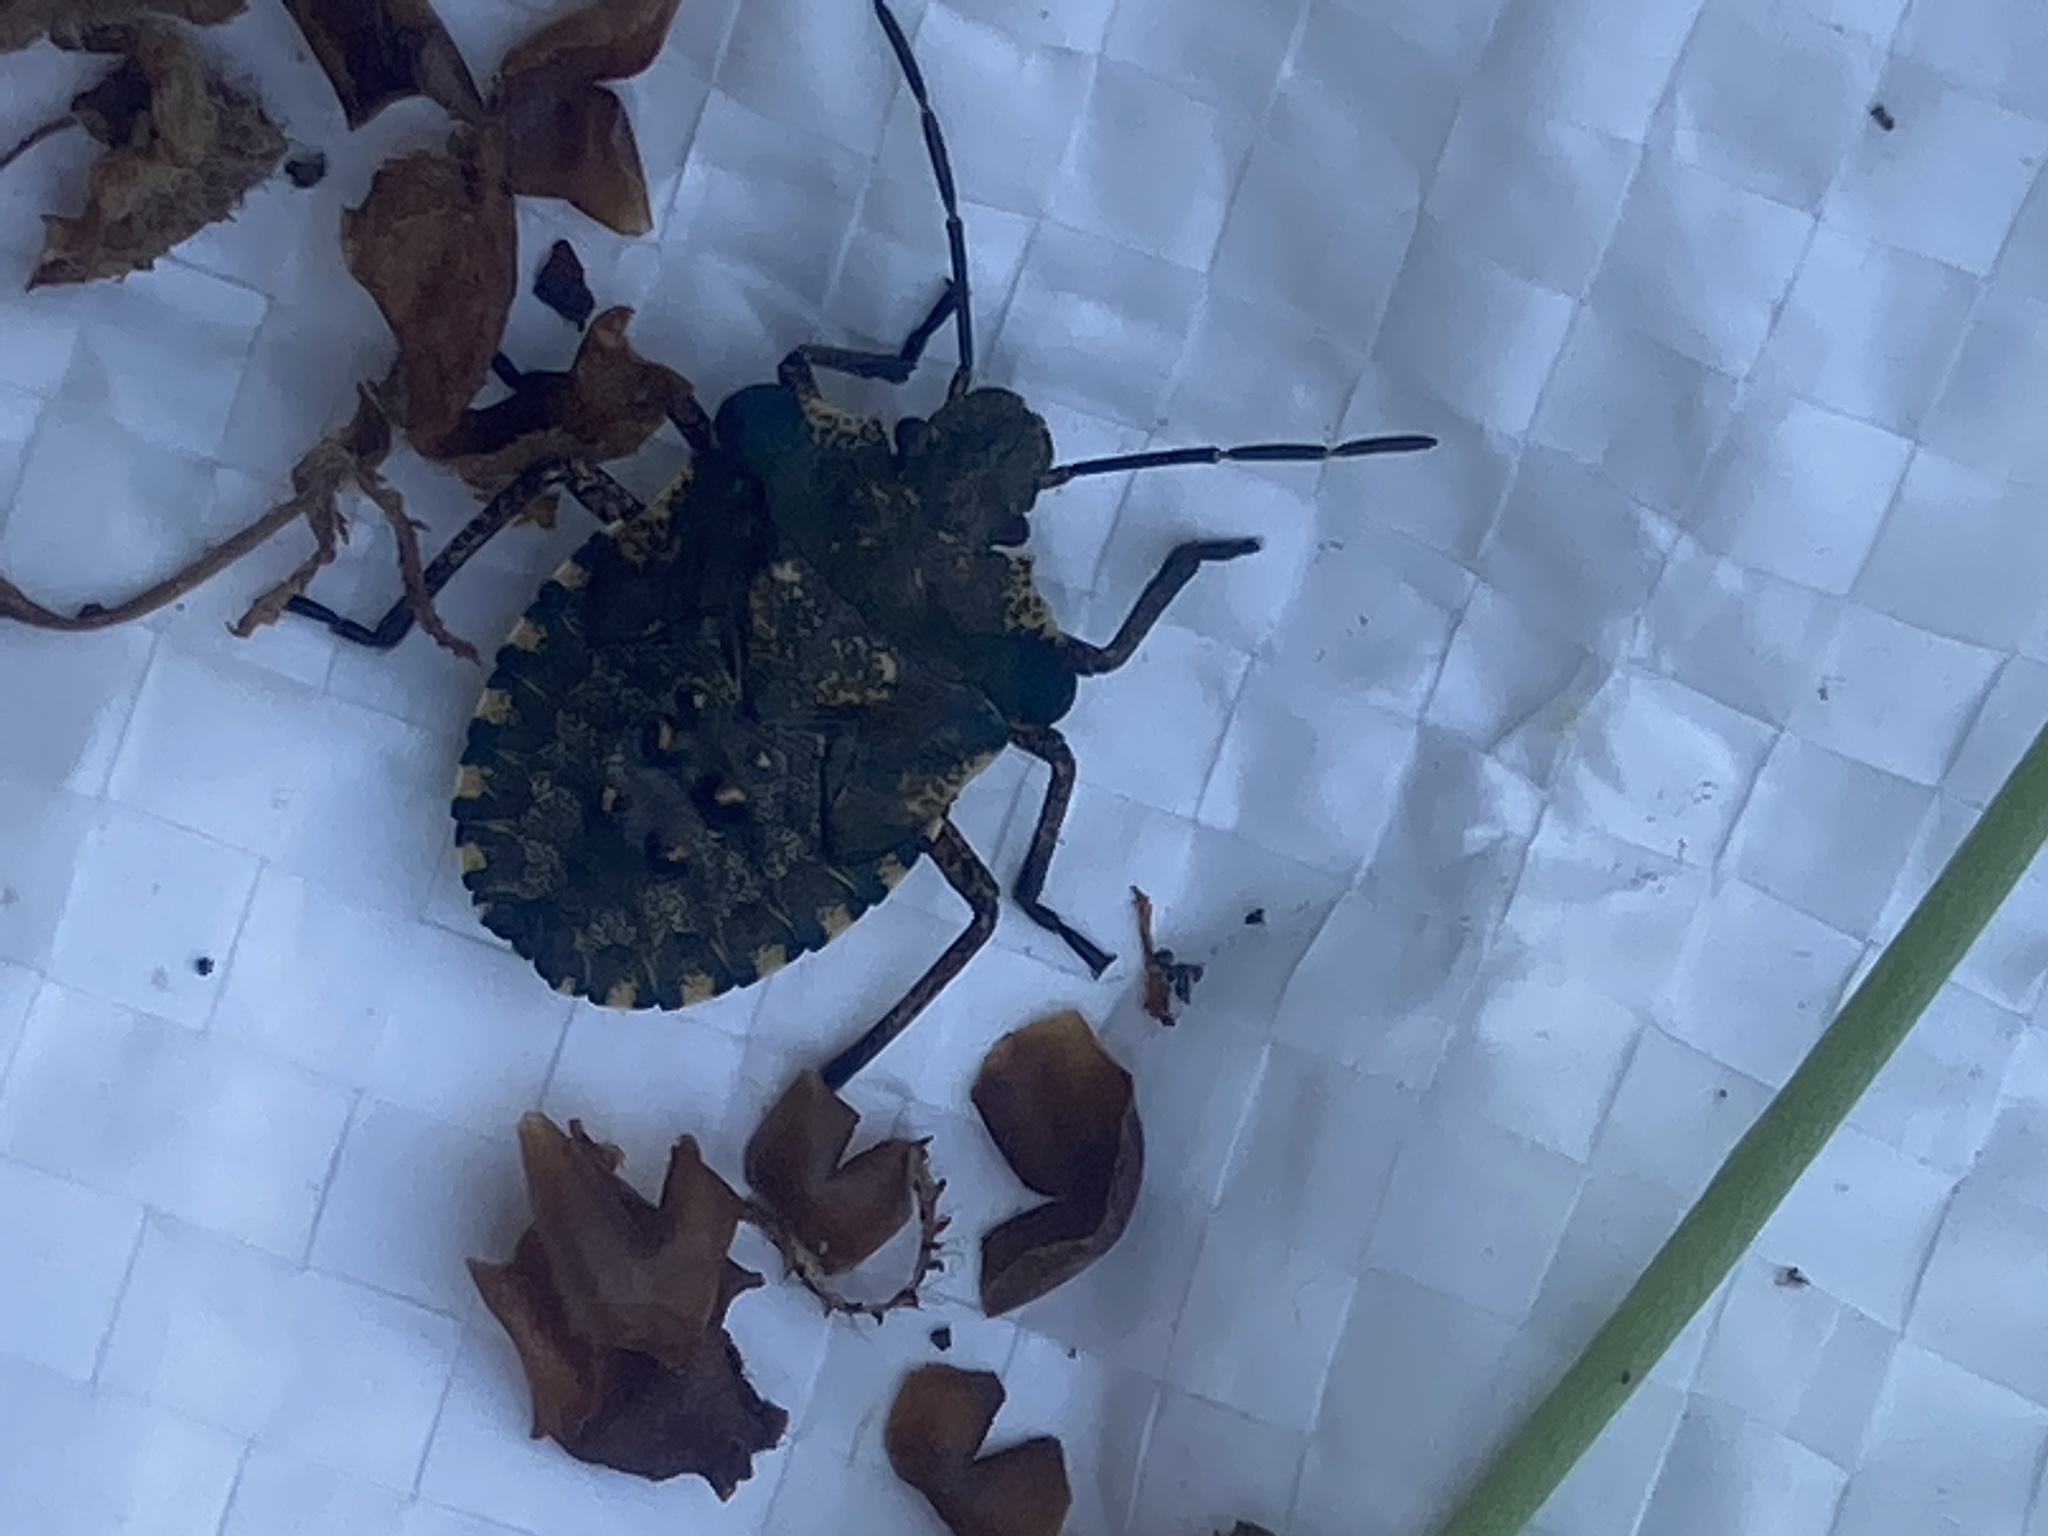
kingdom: Animalia
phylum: Arthropoda
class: Insecta
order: Hemiptera
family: Pentatomidae
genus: Pentatoma
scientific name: Pentatoma rufipes
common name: Forest bug
